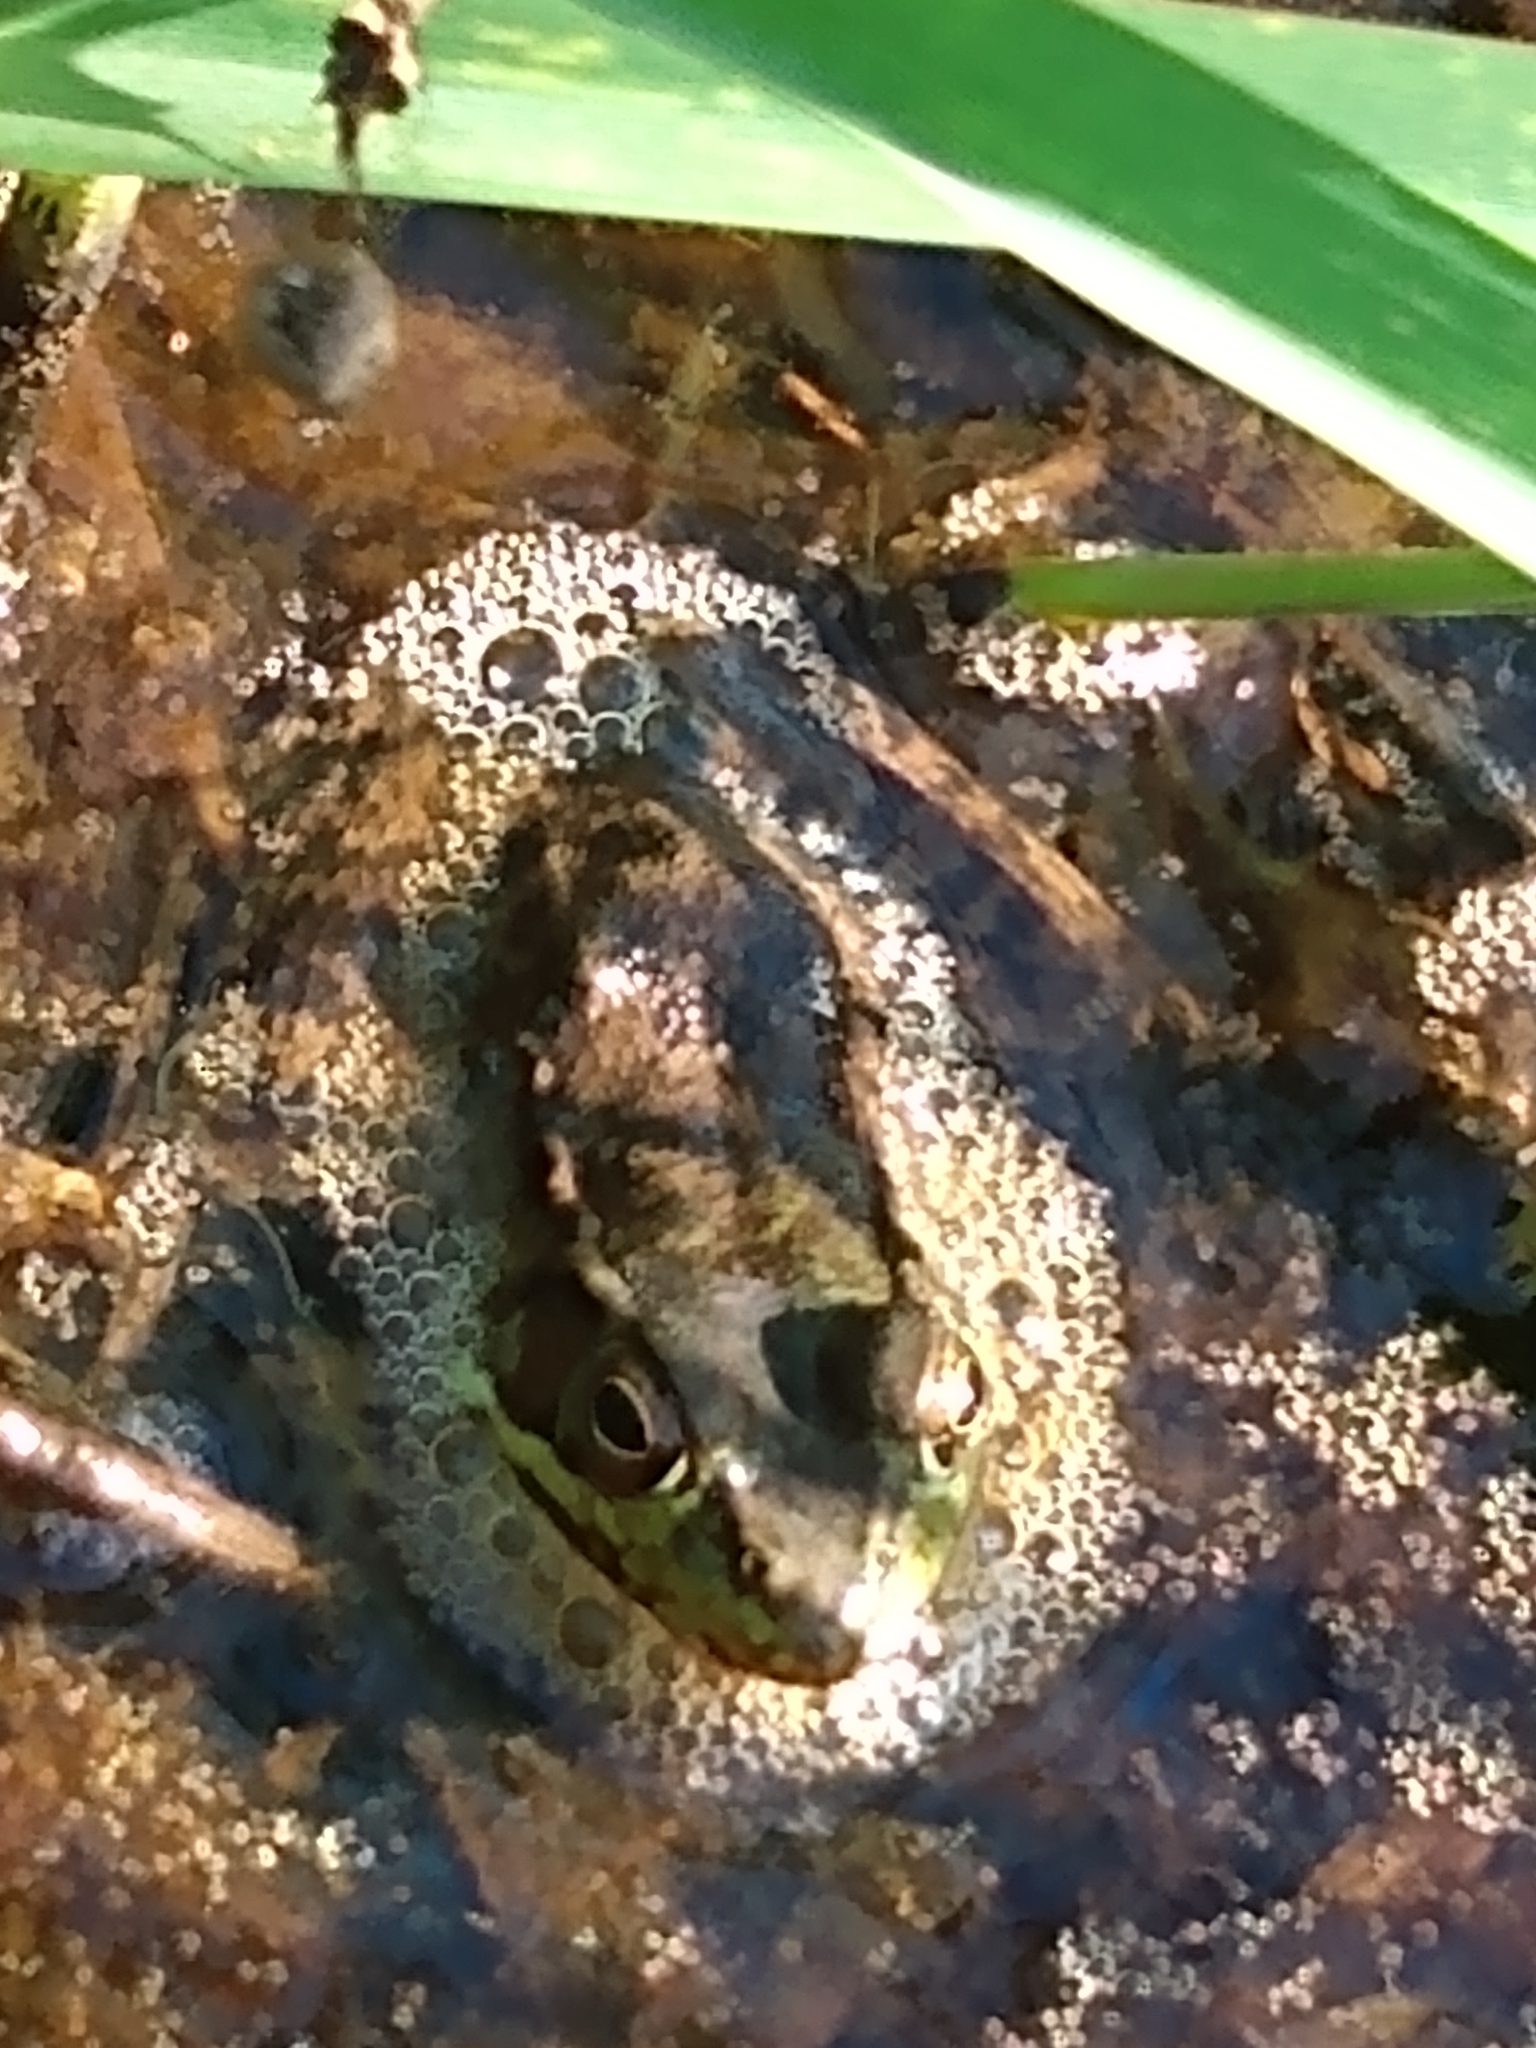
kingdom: Animalia
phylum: Chordata
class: Amphibia
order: Anura
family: Ranidae
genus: Lithobates
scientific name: Lithobates clamitans
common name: Green frog
